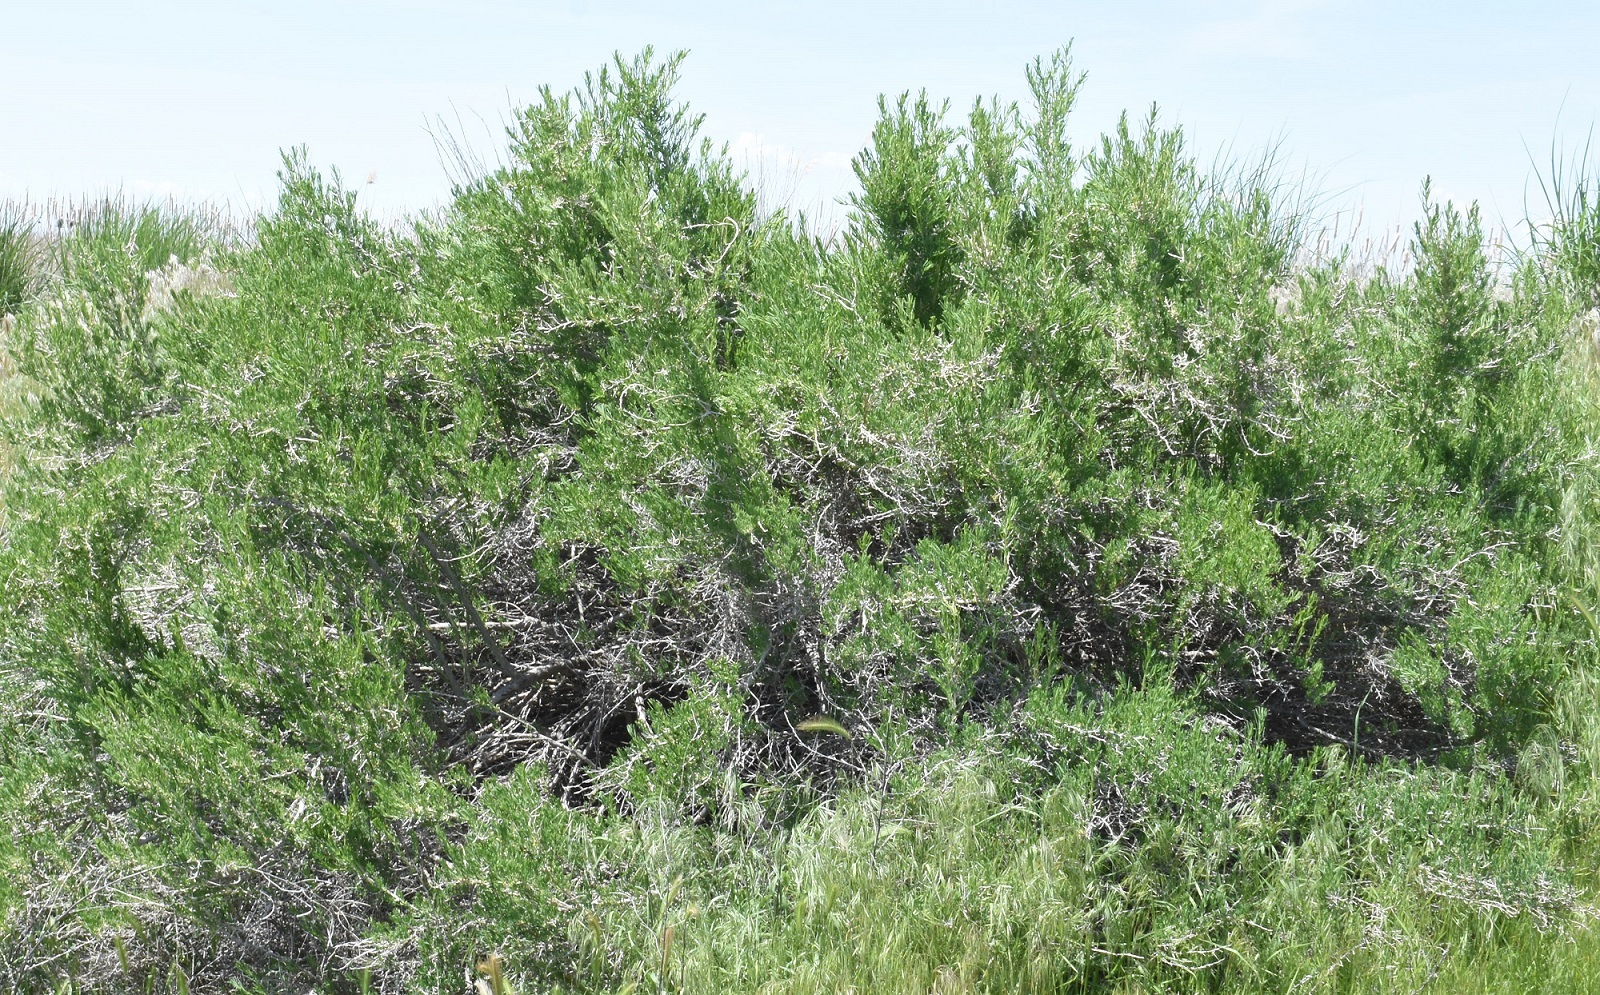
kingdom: Plantae
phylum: Tracheophyta
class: Magnoliopsida
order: Caryophyllales
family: Sarcobataceae
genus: Sarcobatus
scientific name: Sarcobatus vermiculatus
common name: Greasewood
